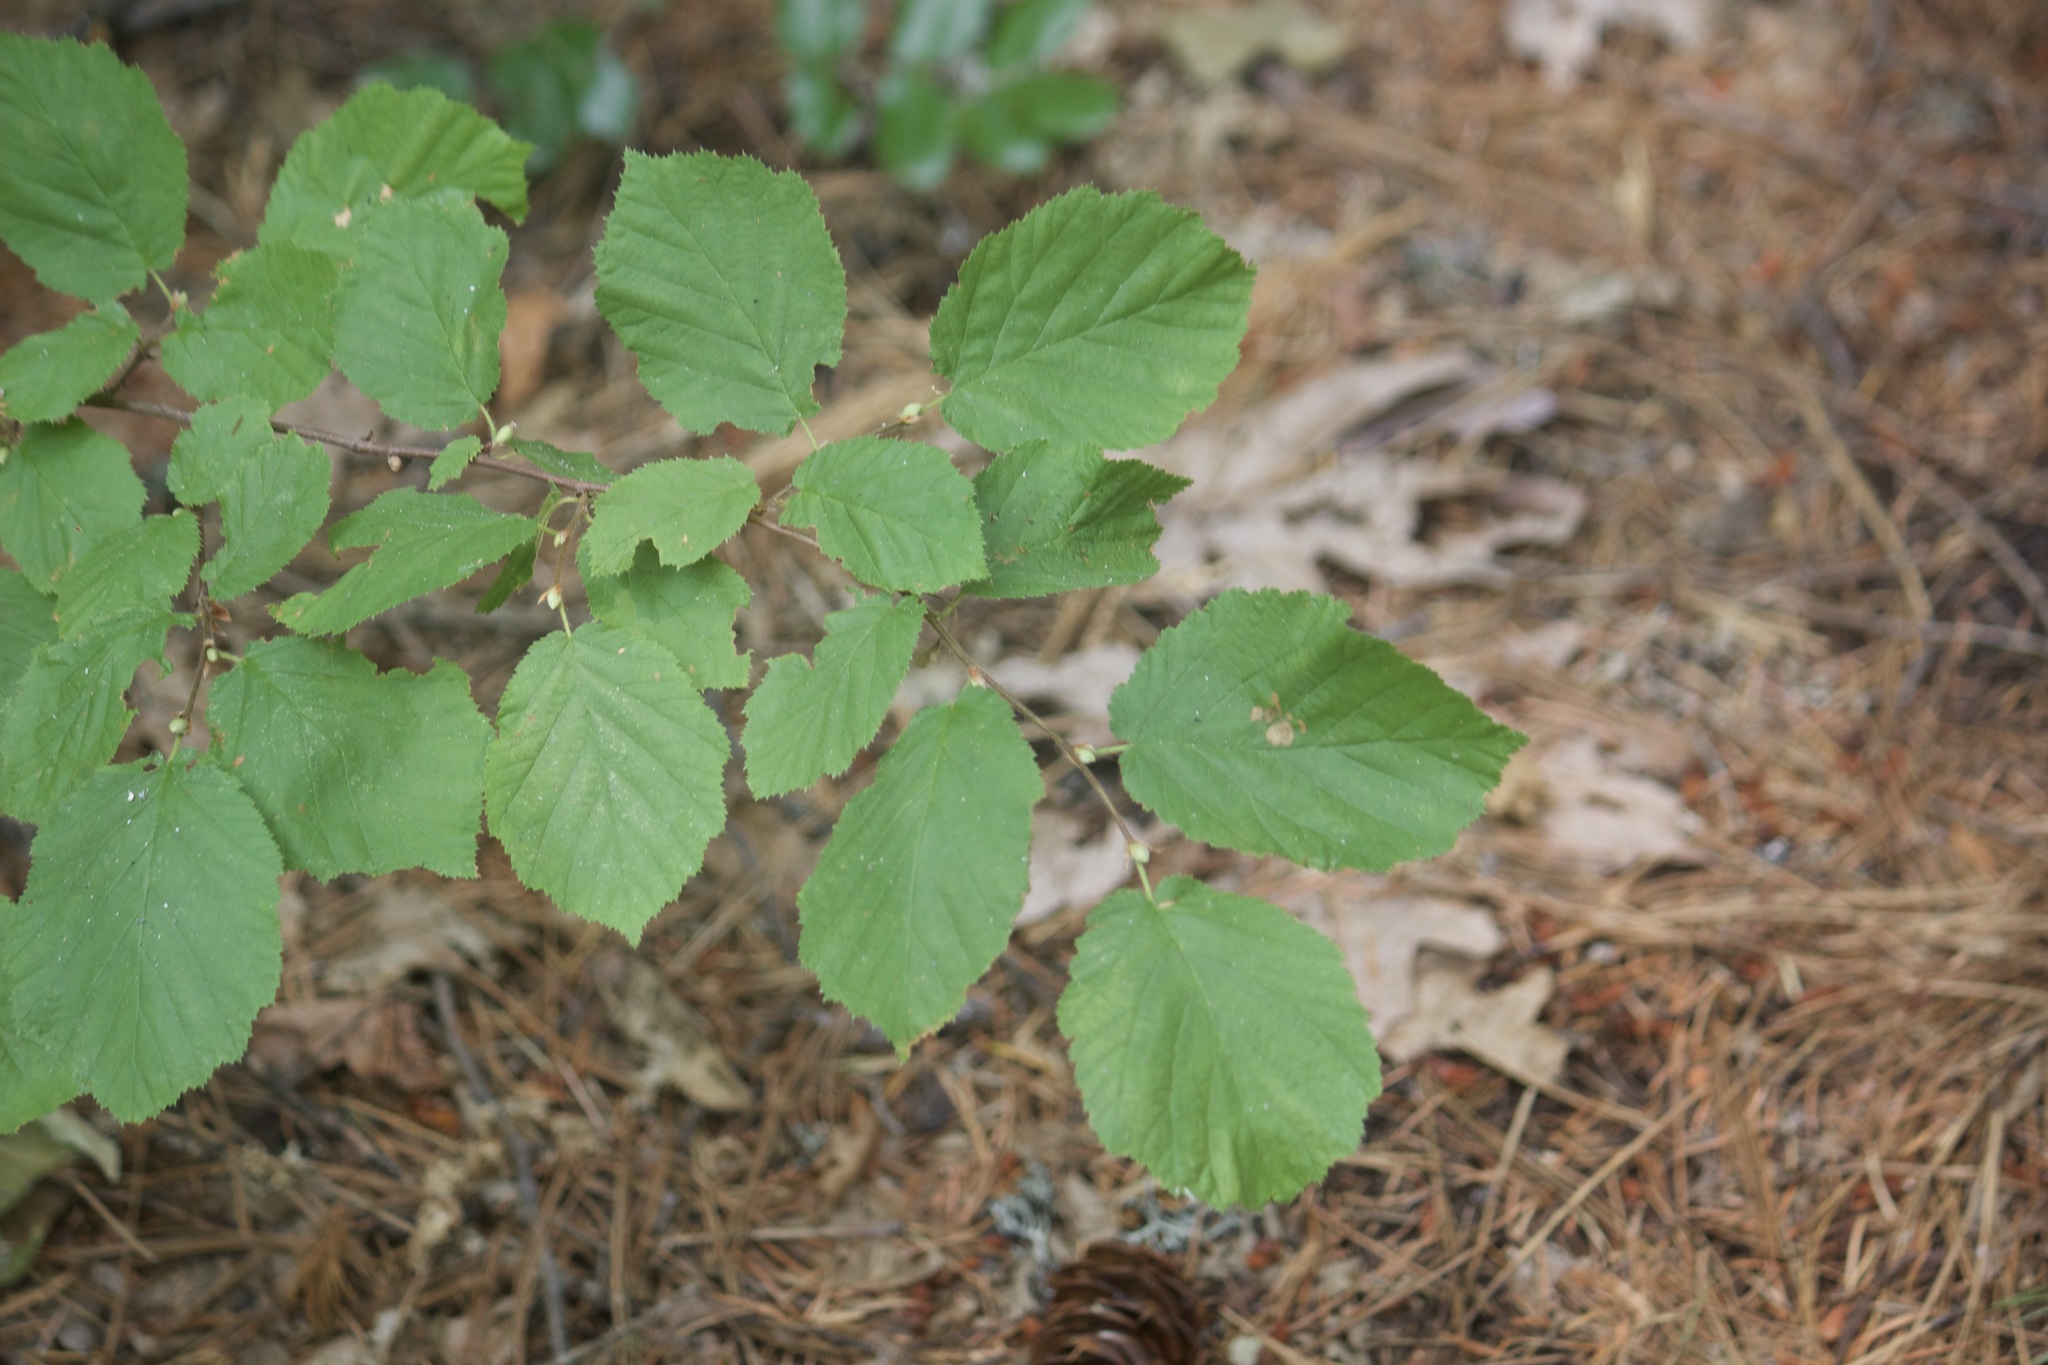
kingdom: Plantae
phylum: Tracheophyta
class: Magnoliopsida
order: Fagales
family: Betulaceae
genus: Corylus
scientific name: Corylus cornuta
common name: Beaked hazel
